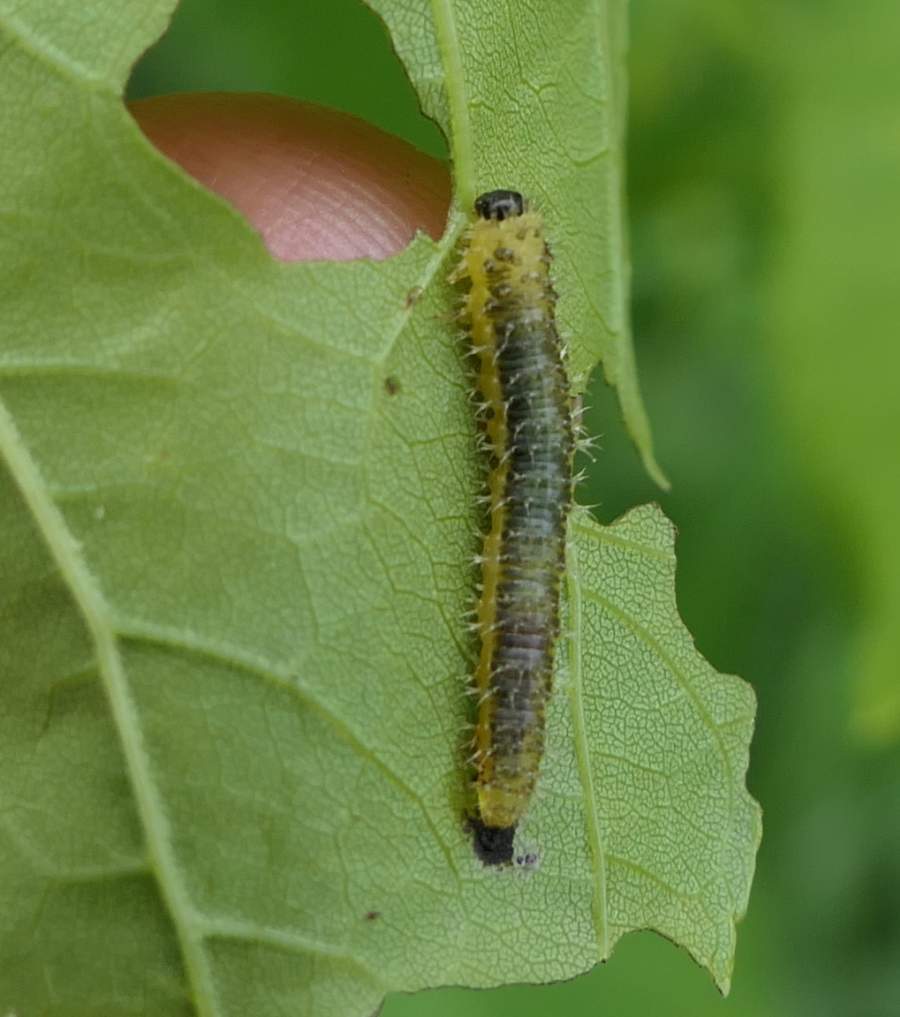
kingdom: Animalia
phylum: Arthropoda
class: Insecta
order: Hymenoptera
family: Tenthredinidae
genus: Eupareophora
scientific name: Eupareophora parca
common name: Sawfly
